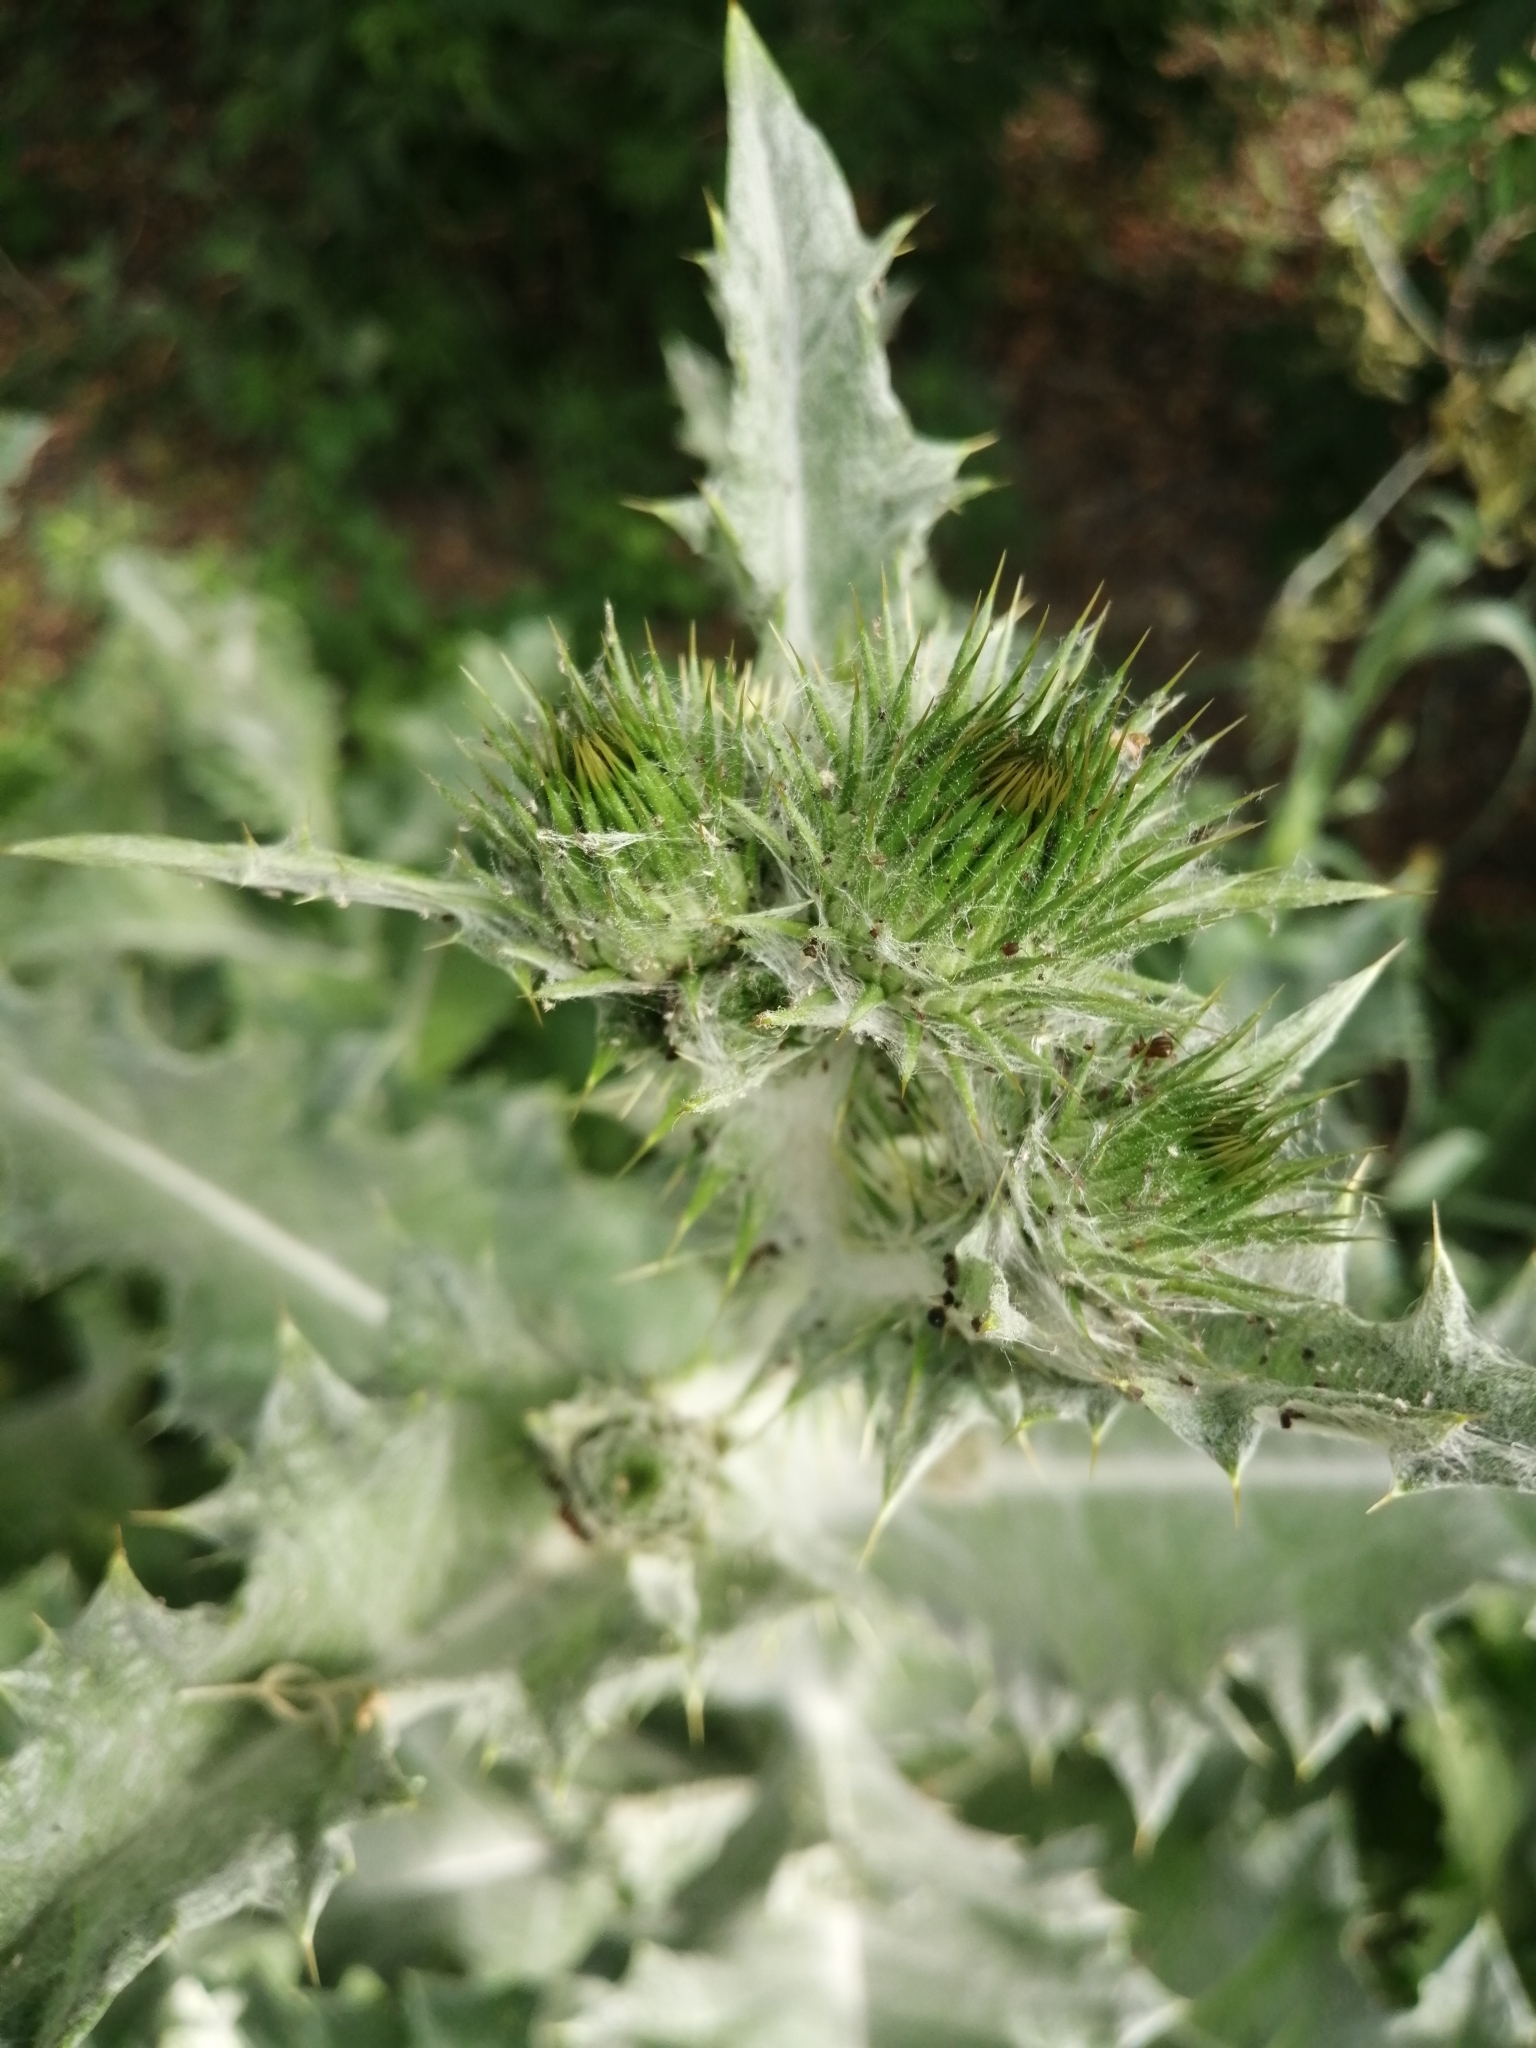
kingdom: Plantae
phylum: Tracheophyta
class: Magnoliopsida
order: Asterales
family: Asteraceae
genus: Onopordum
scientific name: Onopordum acanthium
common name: Scotch thistle
